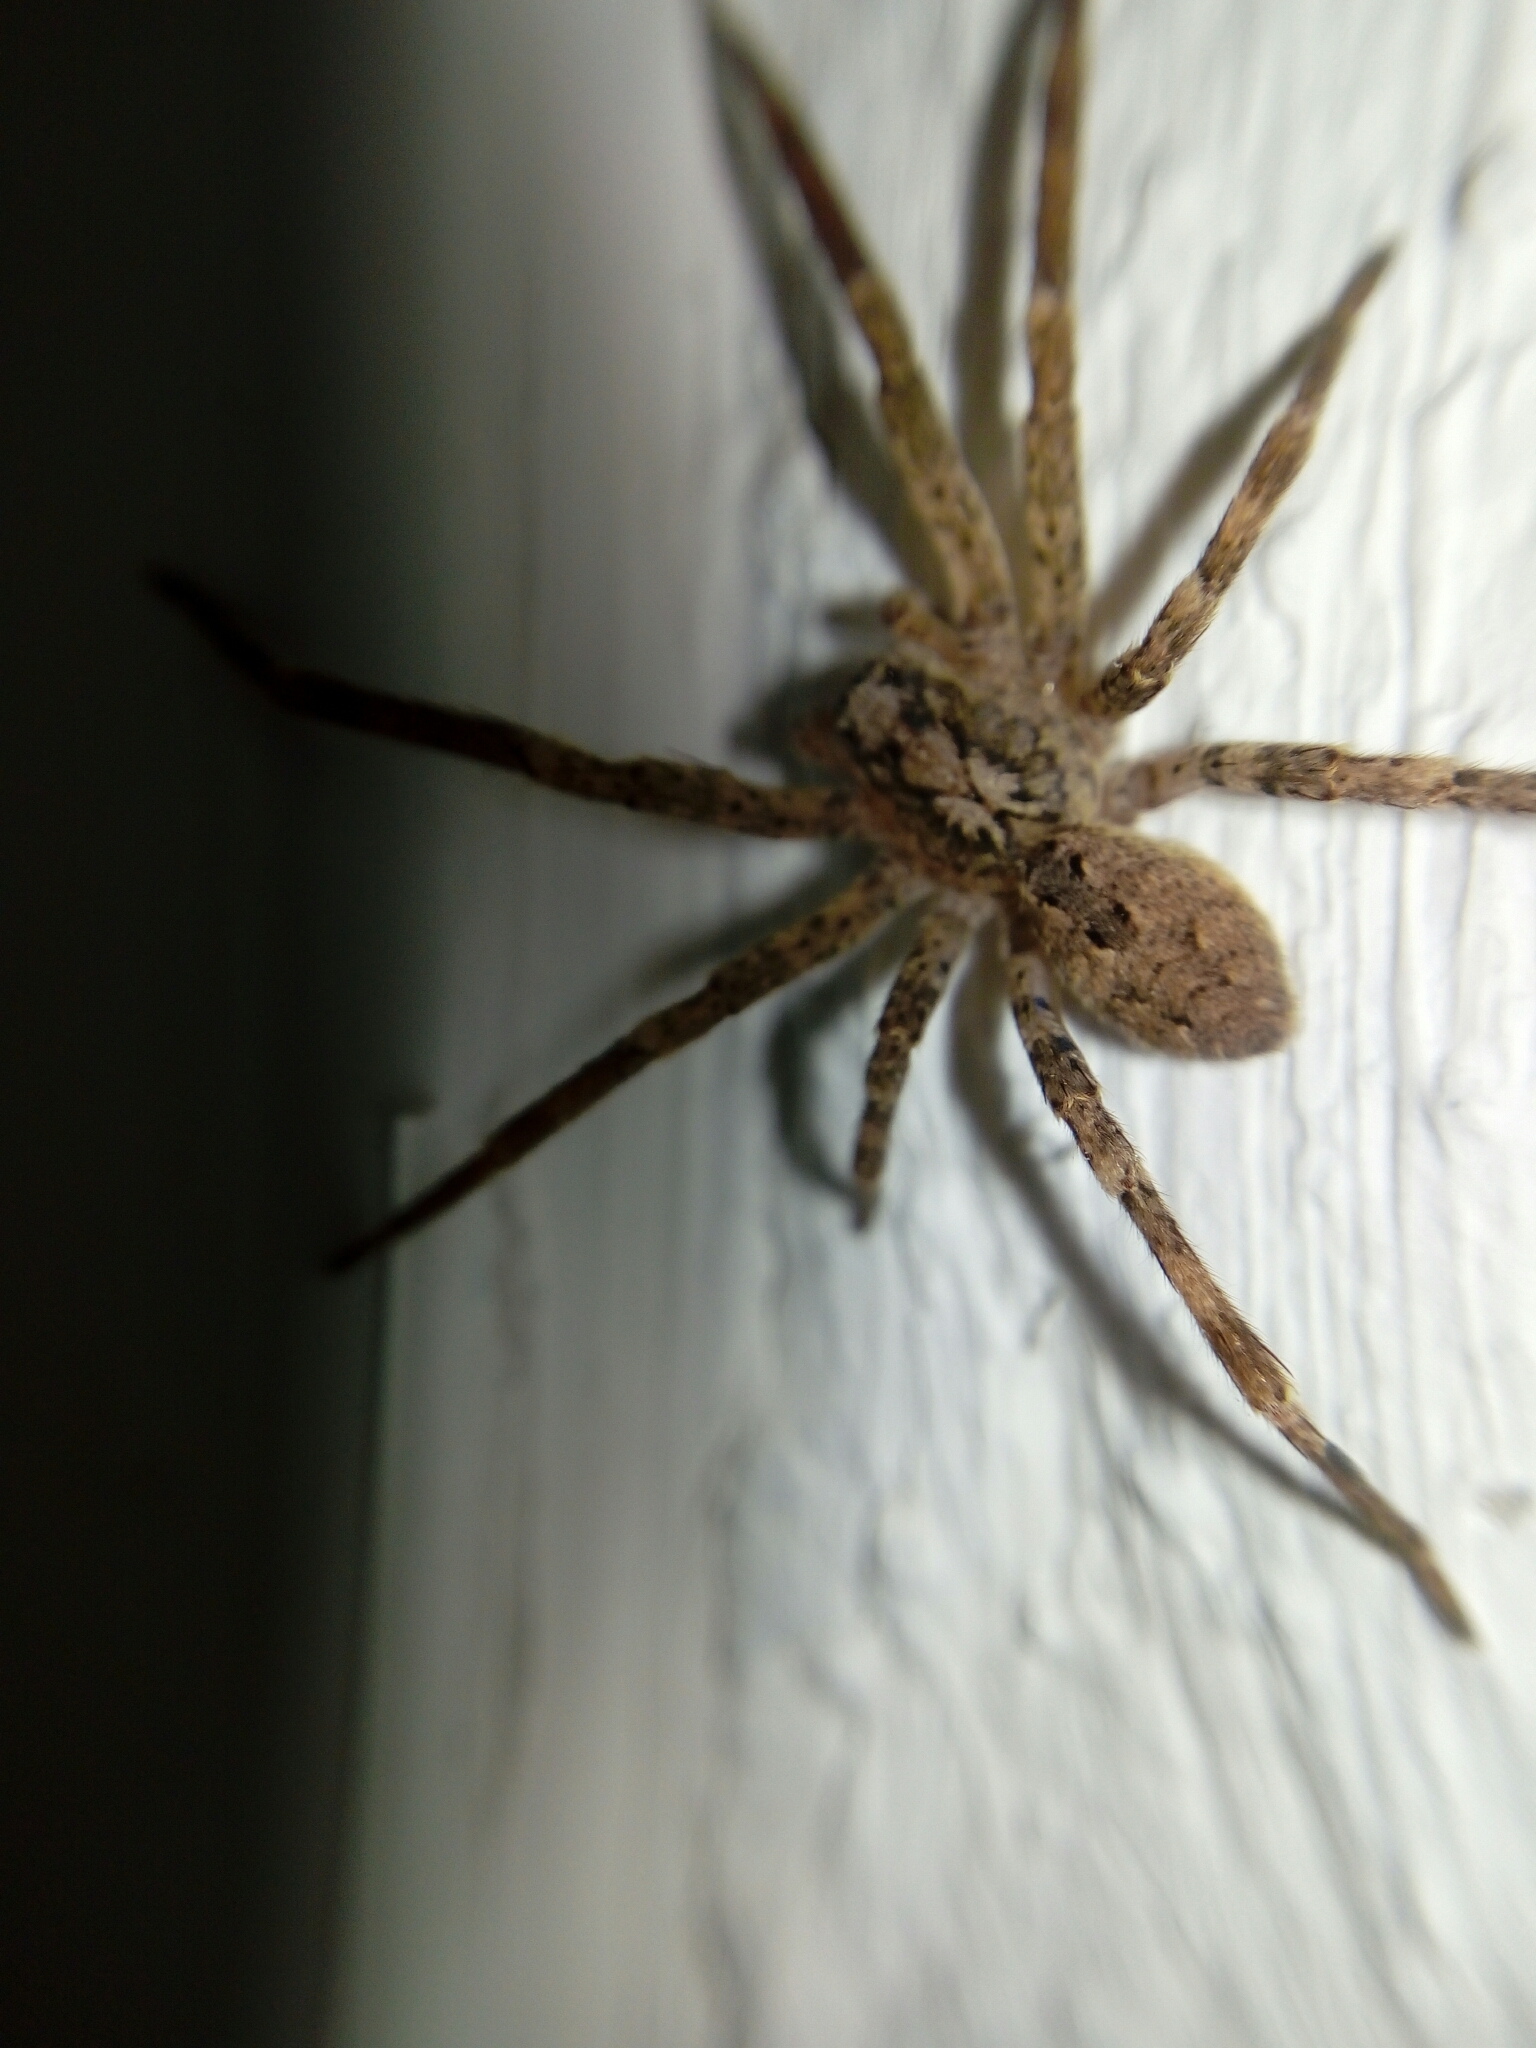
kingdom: Animalia
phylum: Arthropoda
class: Arachnida
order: Araneae
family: Zoropsidae
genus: Zoropsis
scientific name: Zoropsis spinimana
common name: Zoropsid spider
